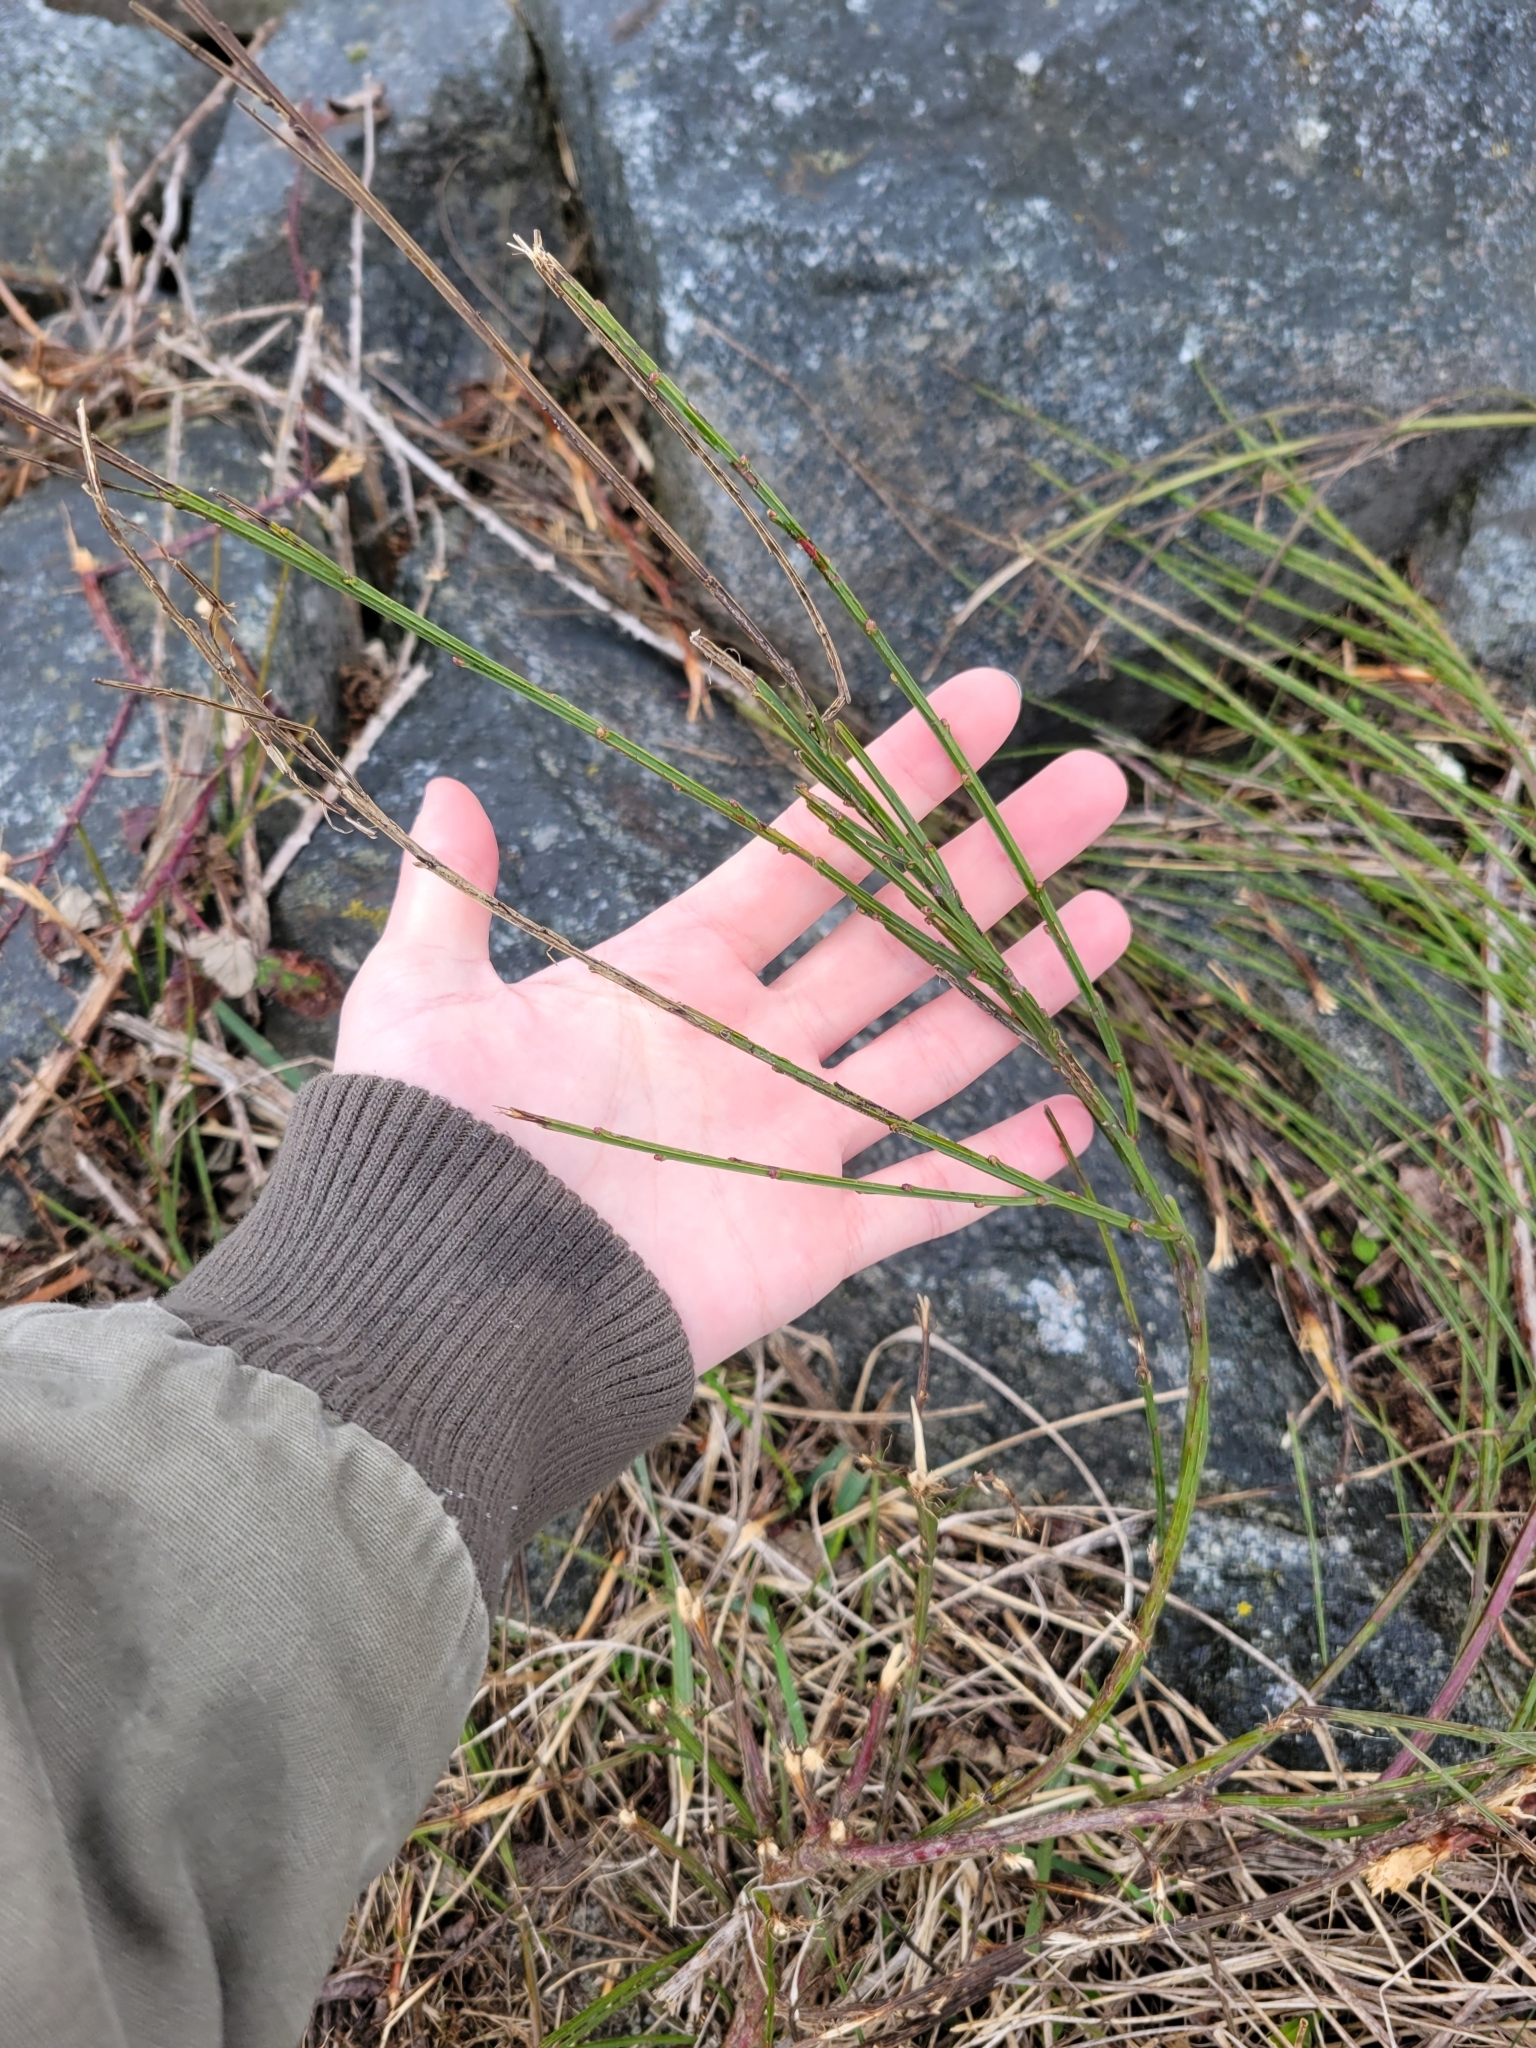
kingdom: Plantae
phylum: Tracheophyta
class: Magnoliopsida
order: Fabales
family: Fabaceae
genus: Cytisus
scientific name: Cytisus scoparius
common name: Scotch broom
